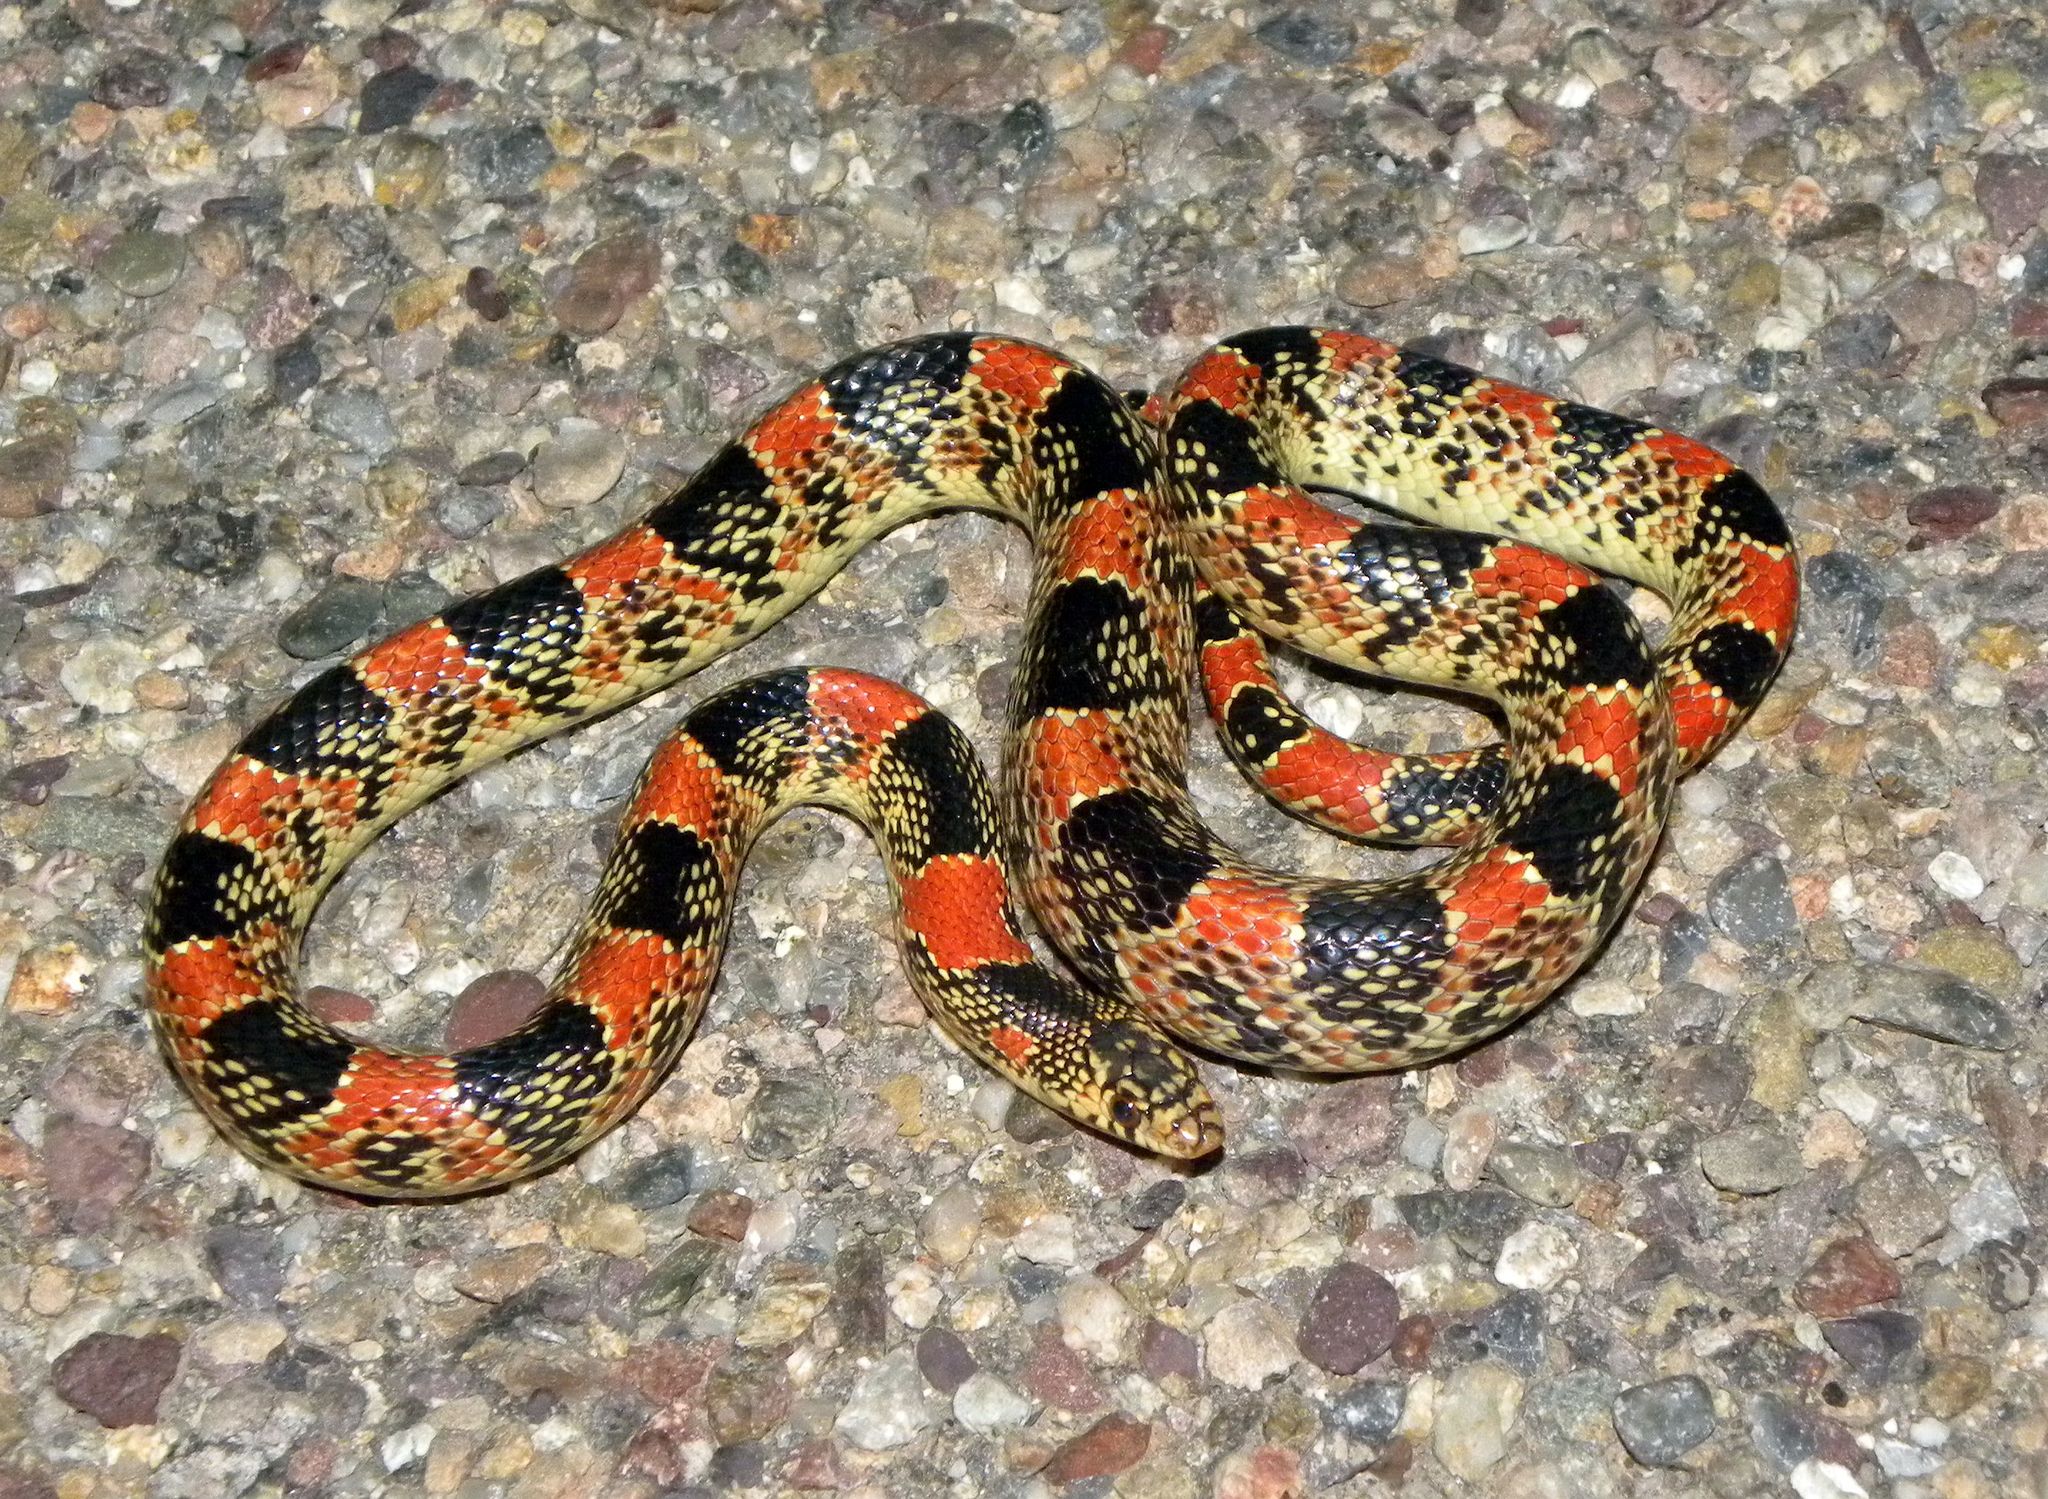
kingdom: Animalia
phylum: Chordata
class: Squamata
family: Colubridae
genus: Rhinocheilus
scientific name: Rhinocheilus lecontei
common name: Longnose snake
